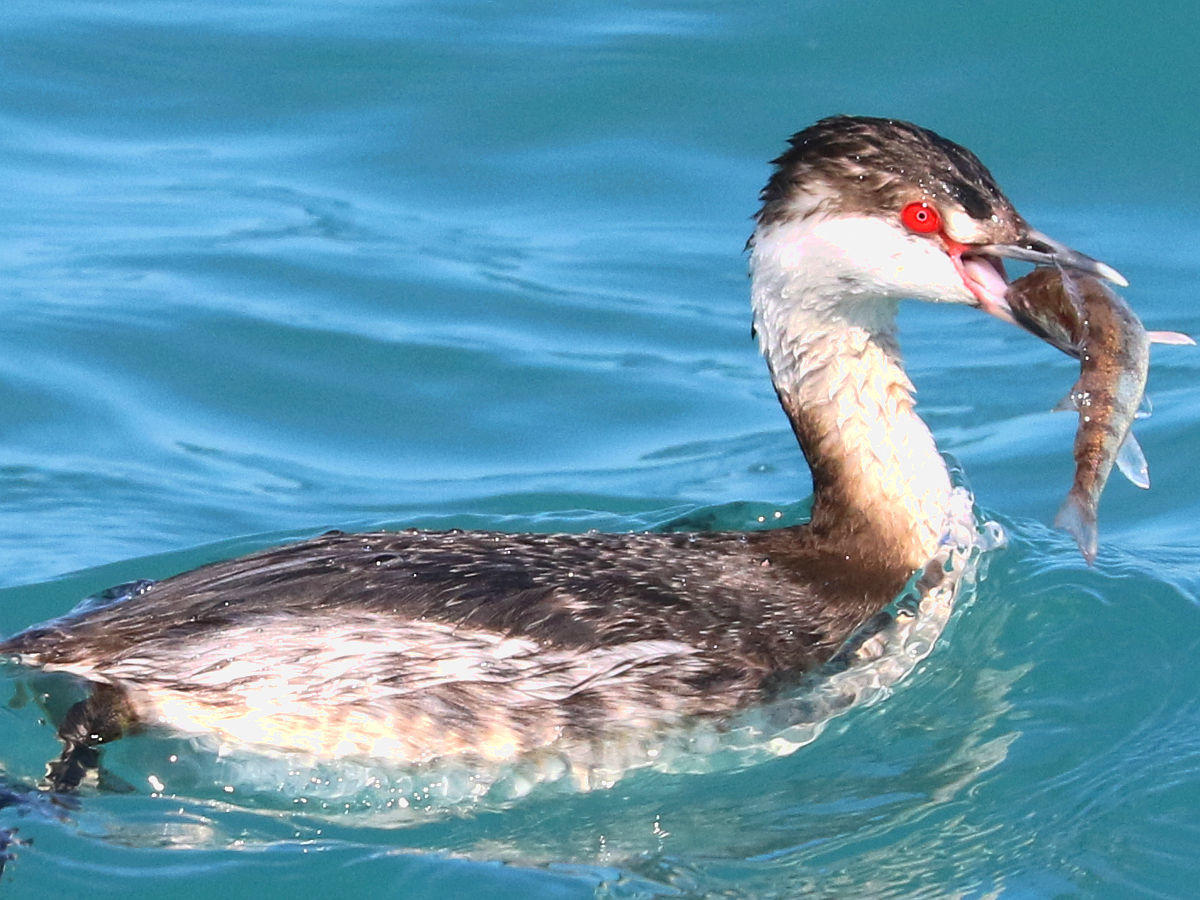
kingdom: Animalia
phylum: Chordata
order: Perciformes
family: Percidae
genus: Perca
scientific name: Perca flavescens
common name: Yellow perch
